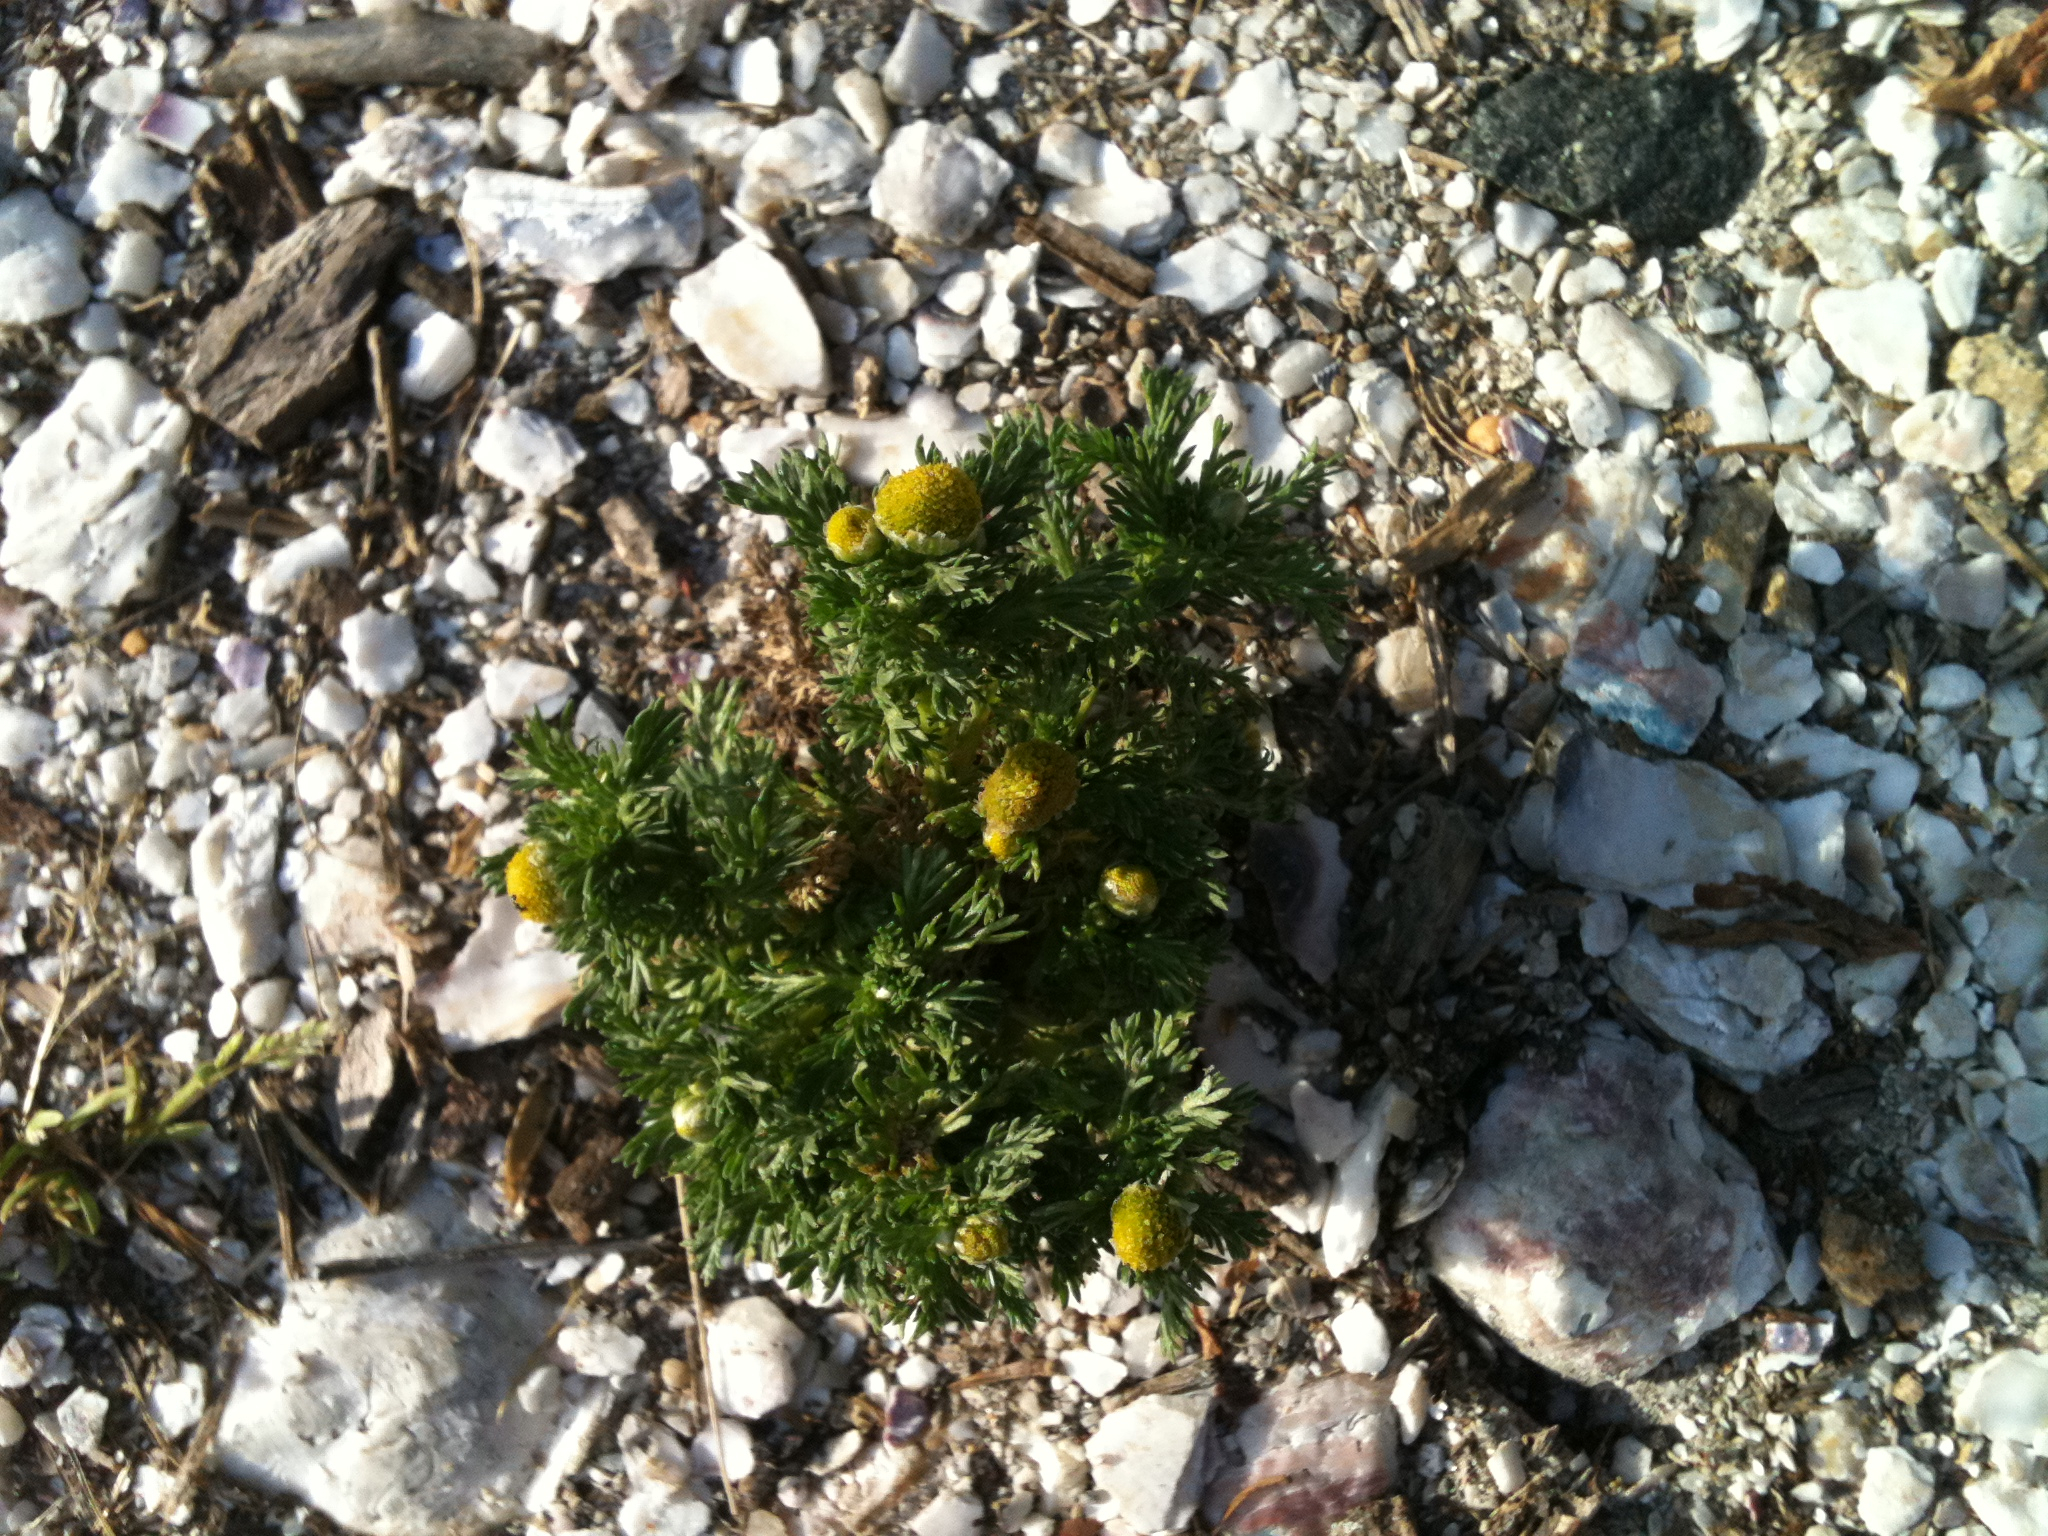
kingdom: Plantae
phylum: Tracheophyta
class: Magnoliopsida
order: Asterales
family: Asteraceae
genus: Matricaria
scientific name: Matricaria discoidea
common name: Disc mayweed
